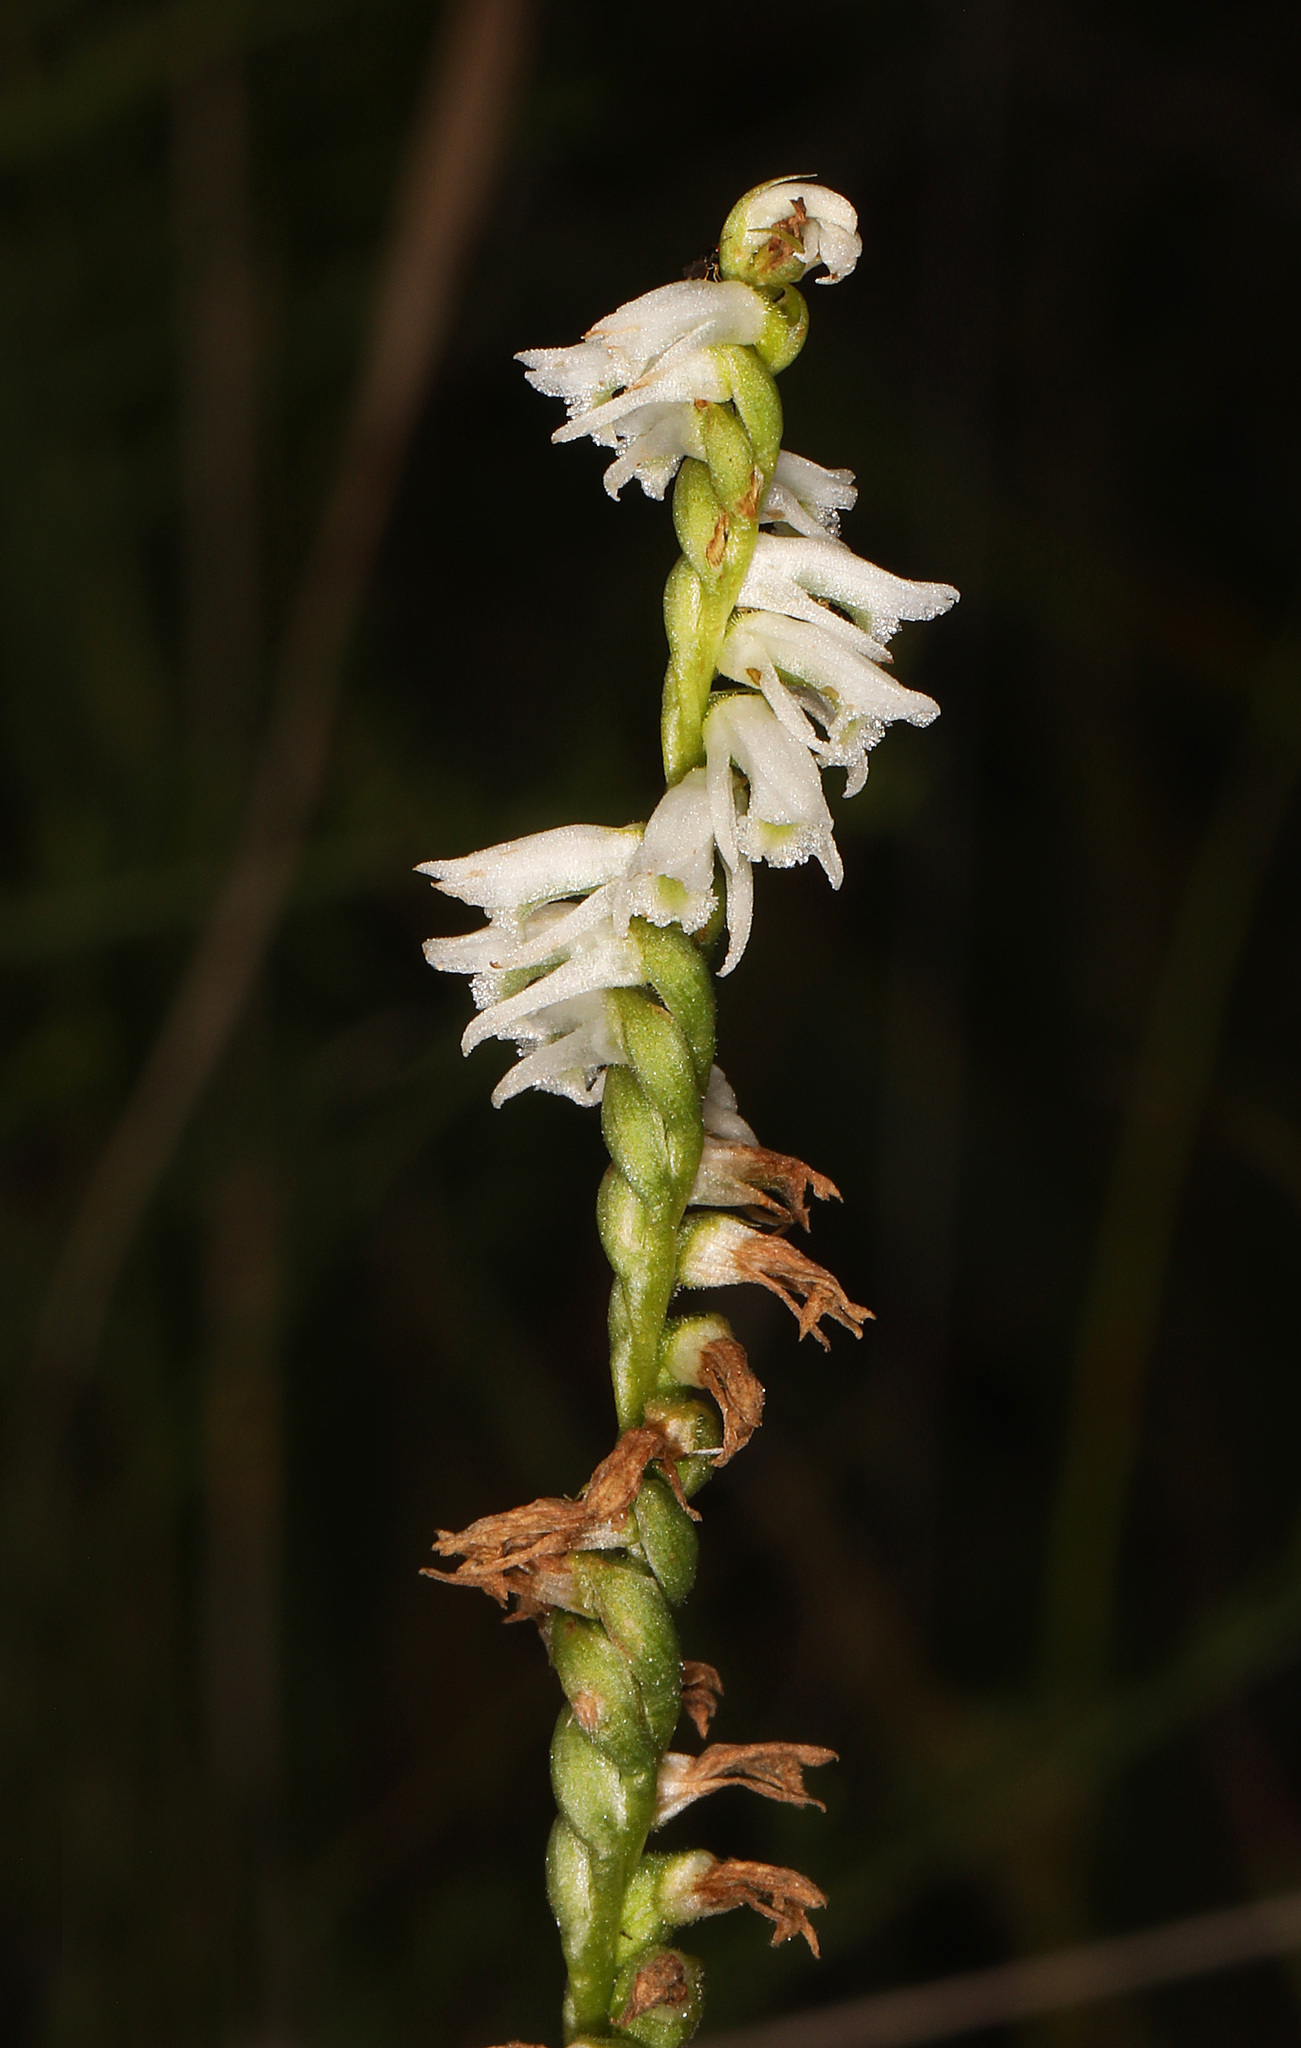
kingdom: Plantae
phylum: Tracheophyta
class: Liliopsida
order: Asparagales
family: Orchidaceae
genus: Spiranthes
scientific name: Spiranthes lacera
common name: Northern slender ladies'-tresses
